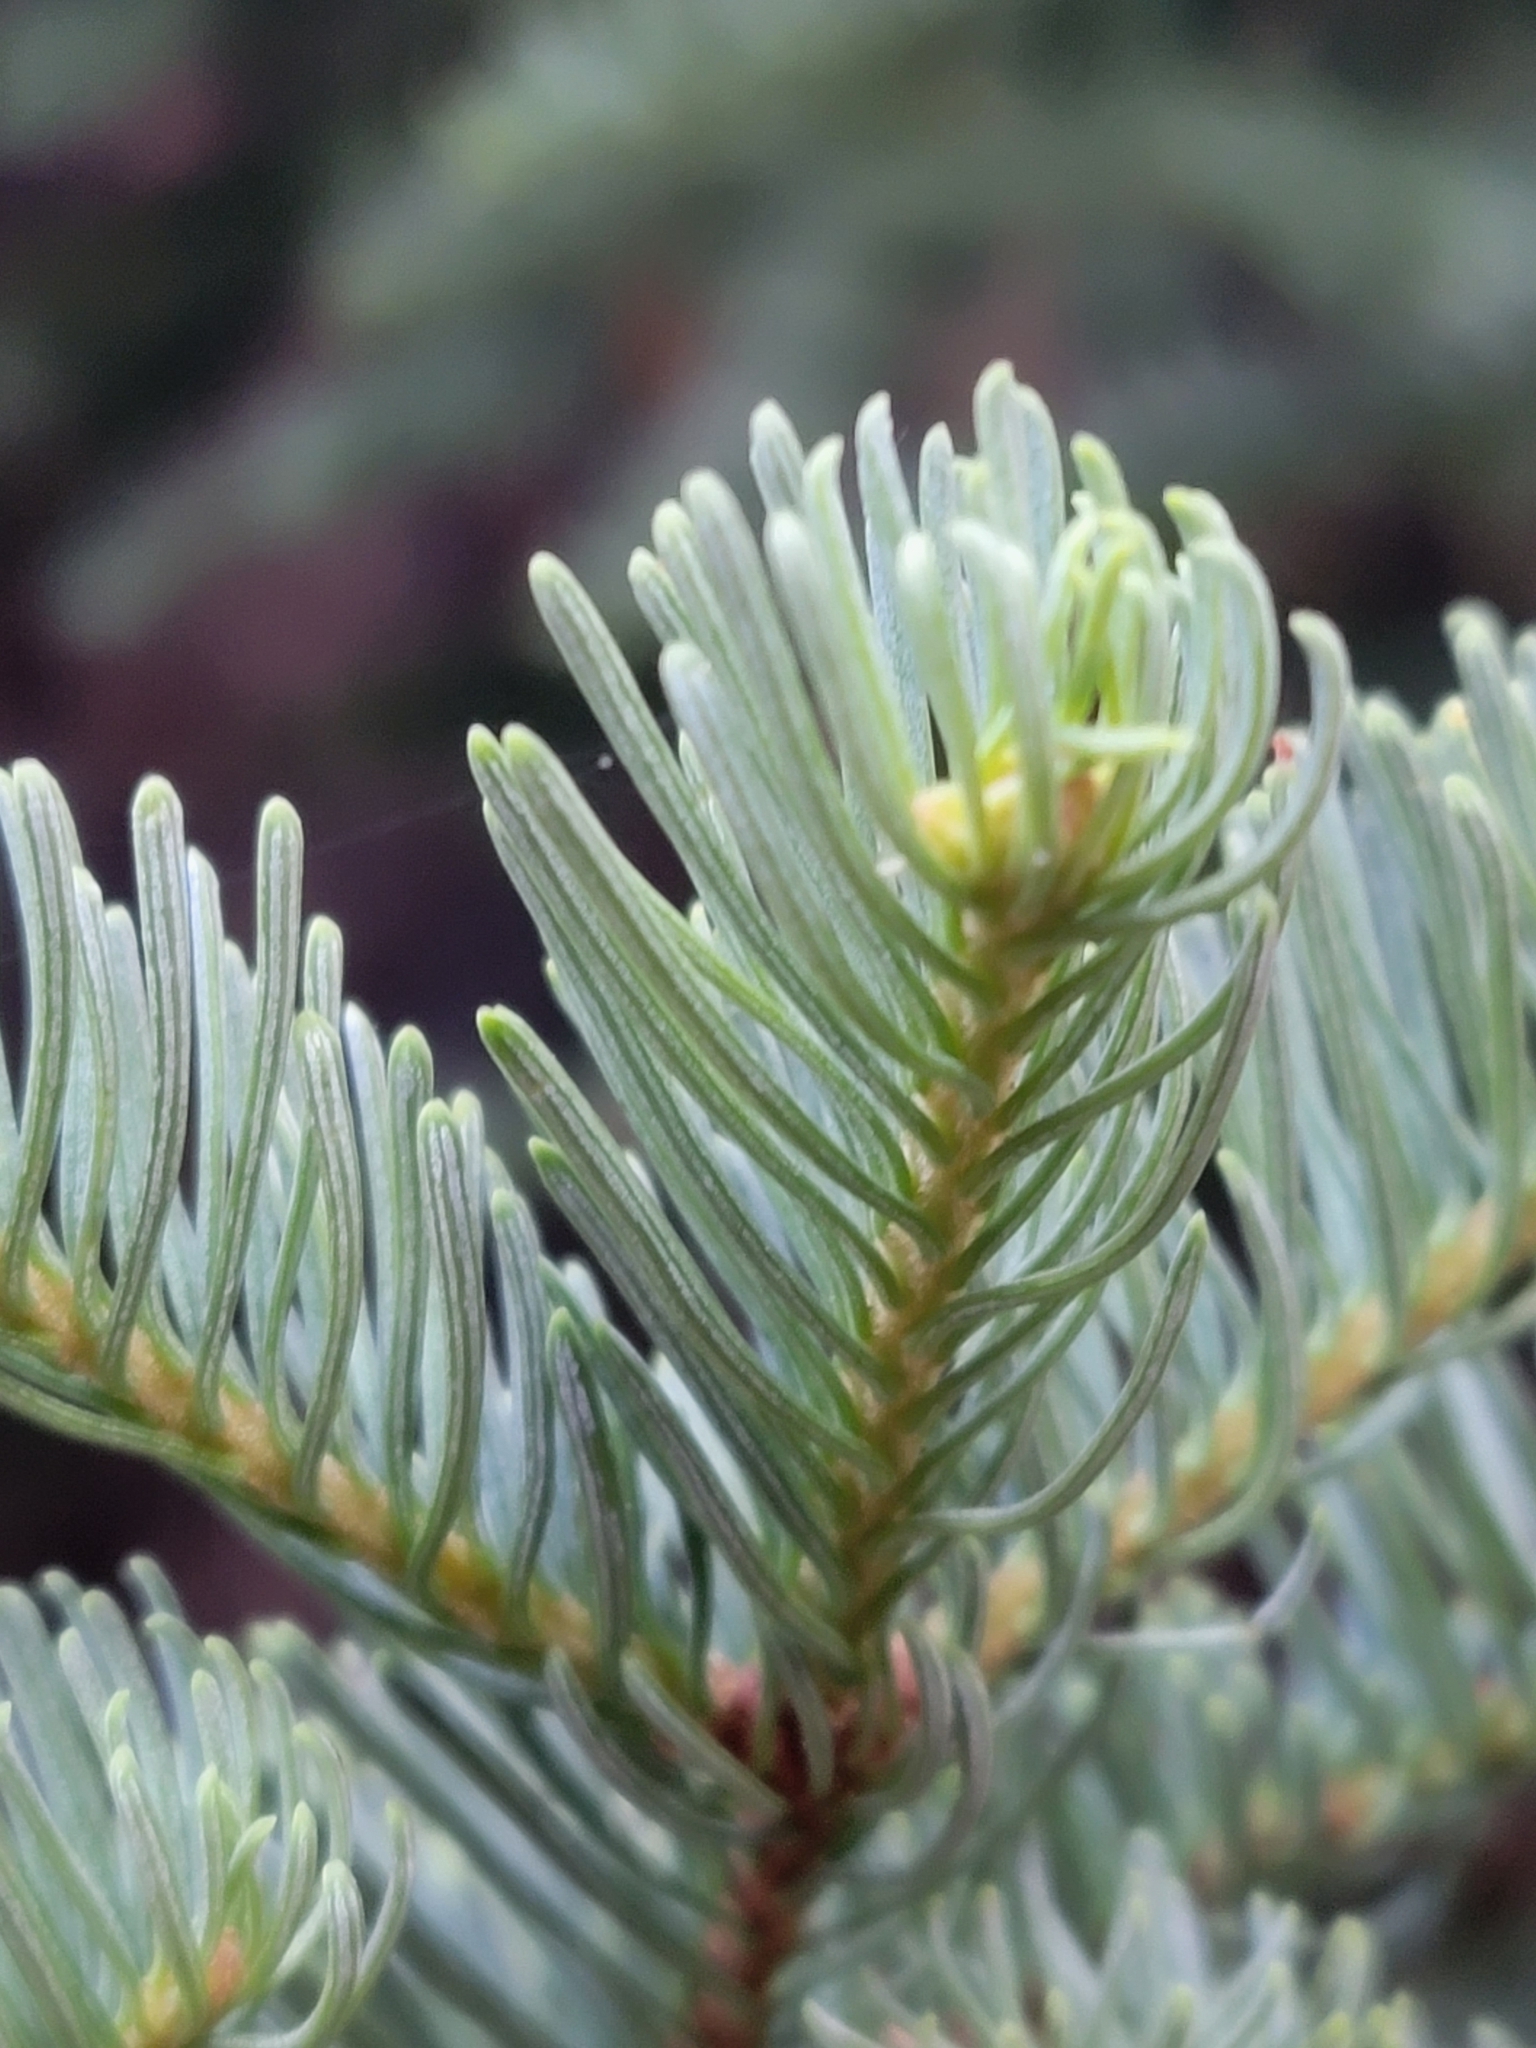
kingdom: Plantae
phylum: Tracheophyta
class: Pinopsida
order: Pinales
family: Pinaceae
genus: Abies
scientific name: Abies lasiocarpa
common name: Subalpine fir
